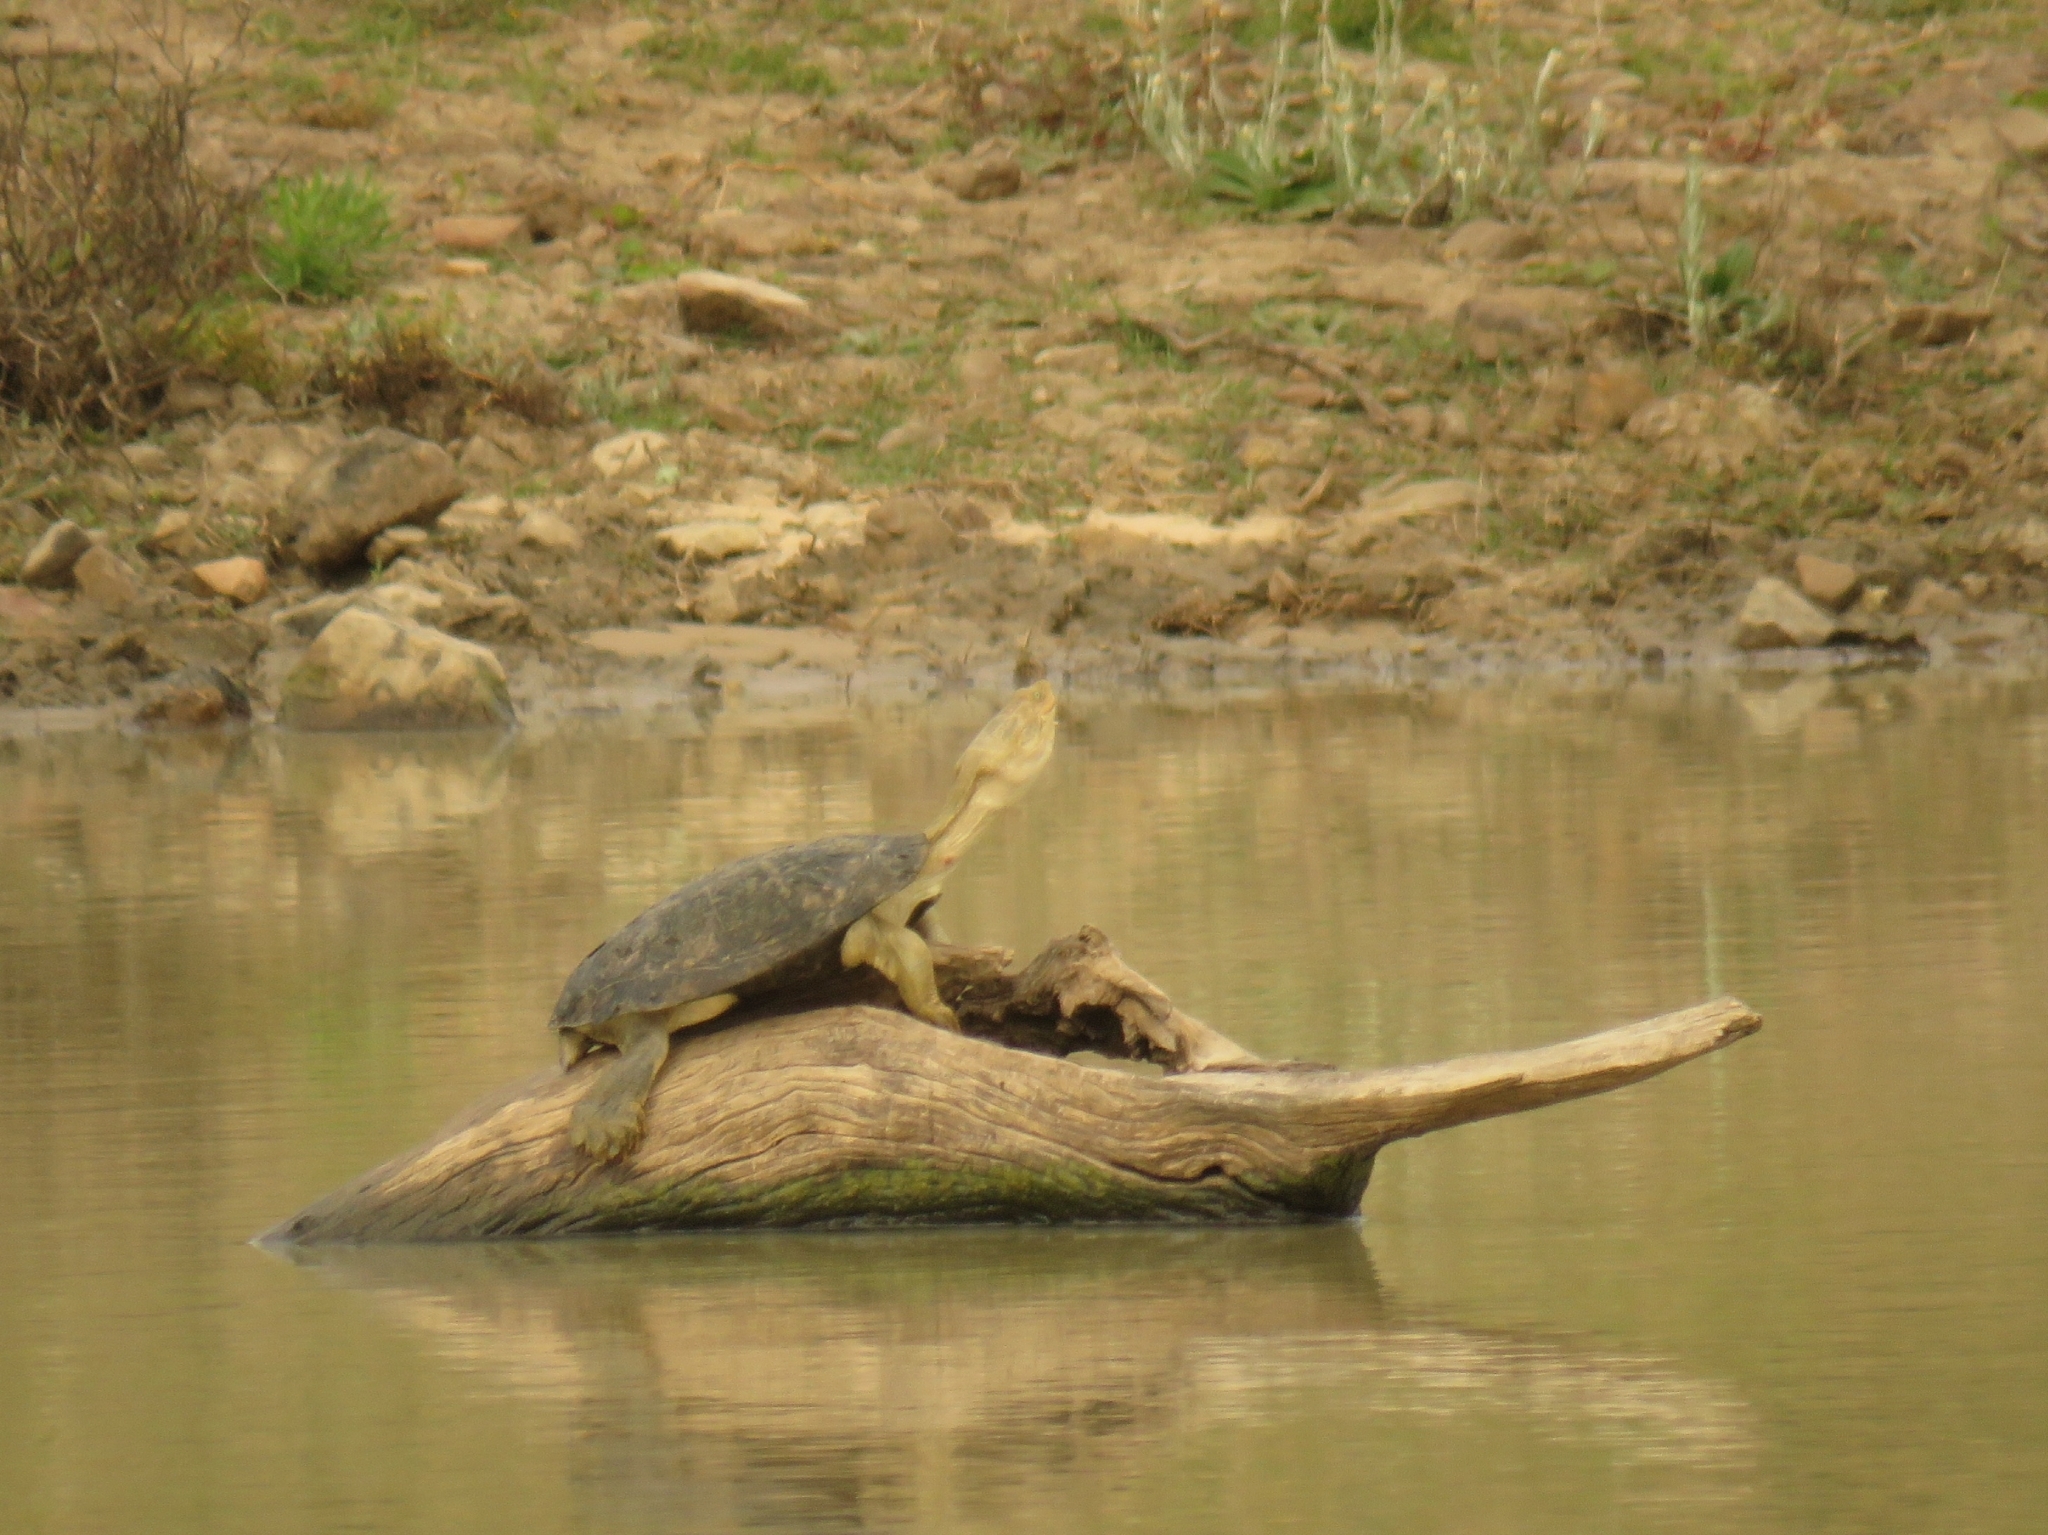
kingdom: Animalia
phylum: Chordata
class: Testudines
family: Pelomedusidae
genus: Pelomedusa
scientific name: Pelomedusa galeata
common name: South african helmeted terrapin
